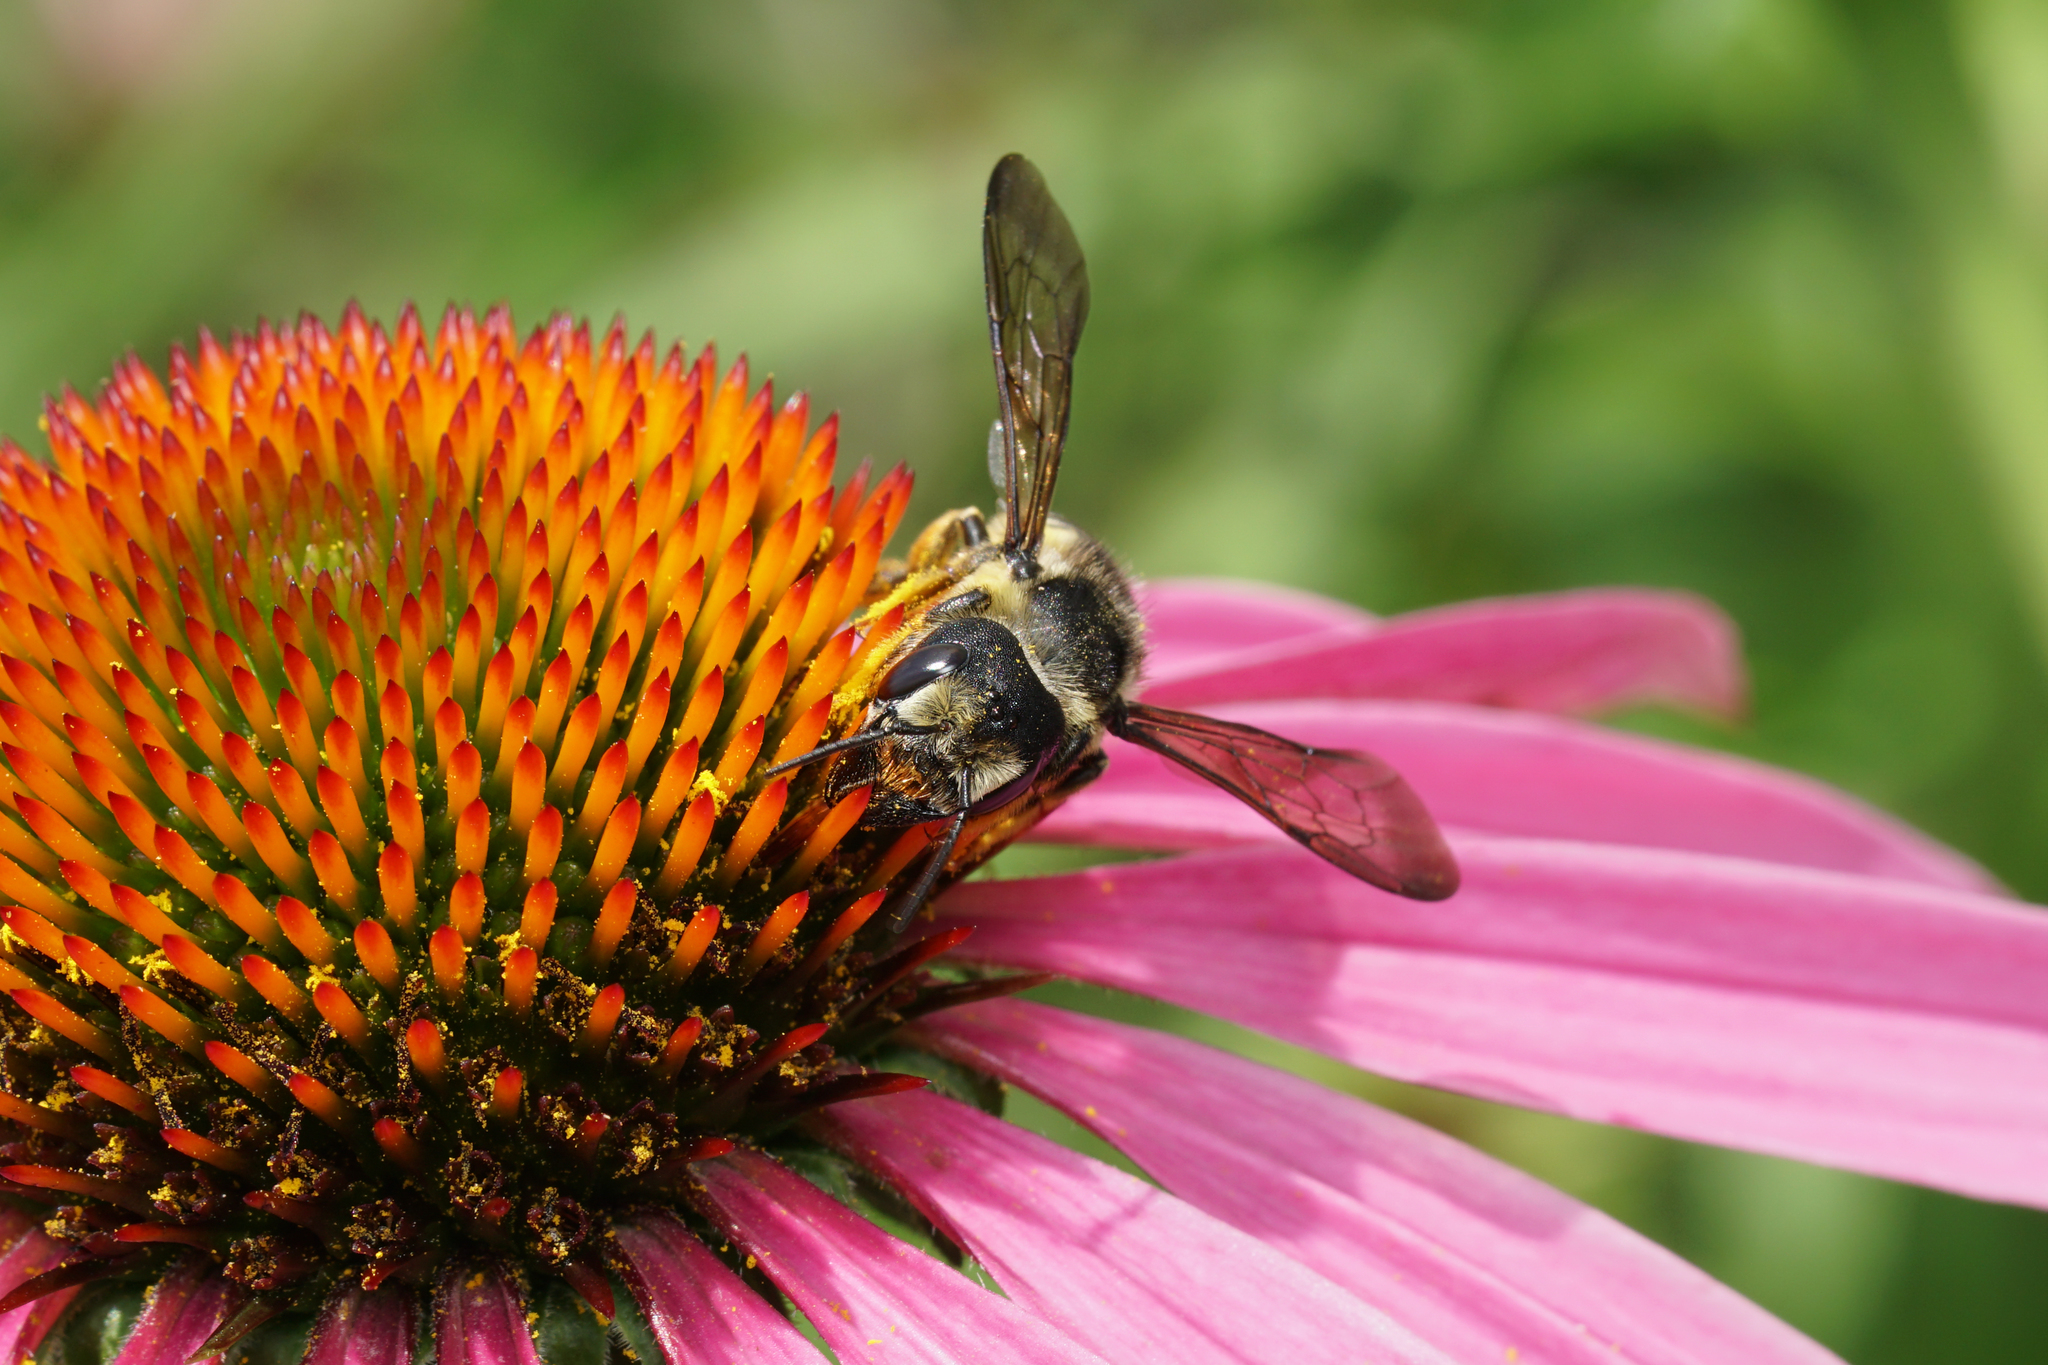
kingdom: Animalia
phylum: Arthropoda
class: Insecta
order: Hymenoptera
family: Megachilidae
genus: Megachile
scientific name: Megachile pugnata
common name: Pugnacious leafcutter bee
